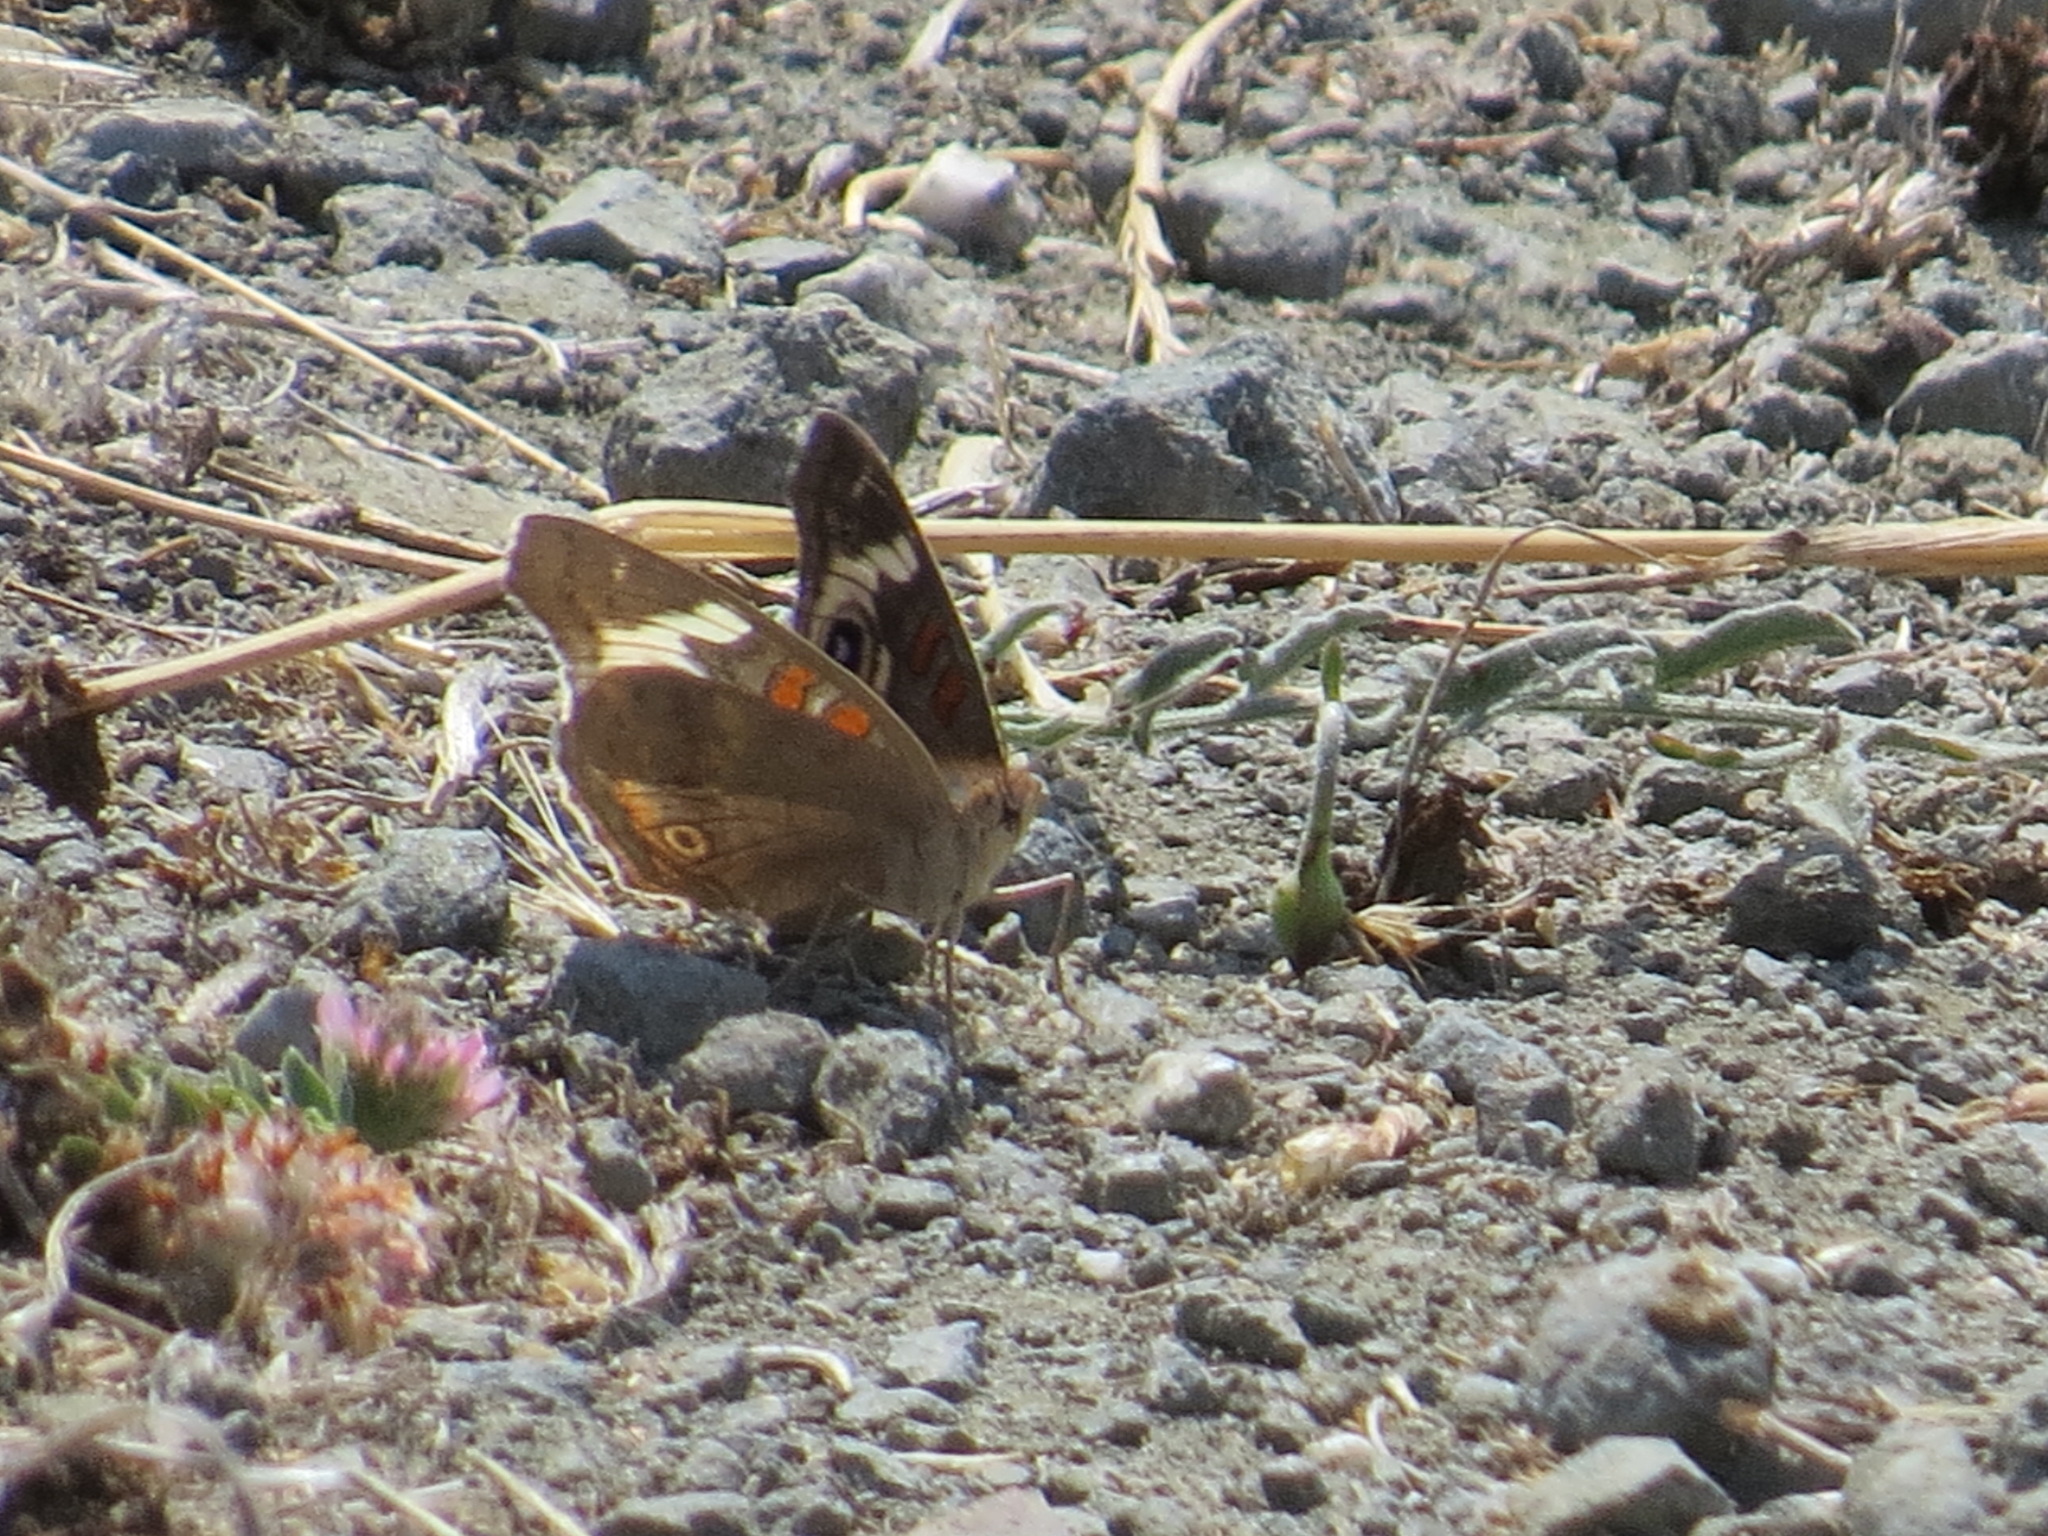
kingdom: Animalia
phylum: Arthropoda
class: Insecta
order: Lepidoptera
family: Nymphalidae
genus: Junonia
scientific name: Junonia grisea
